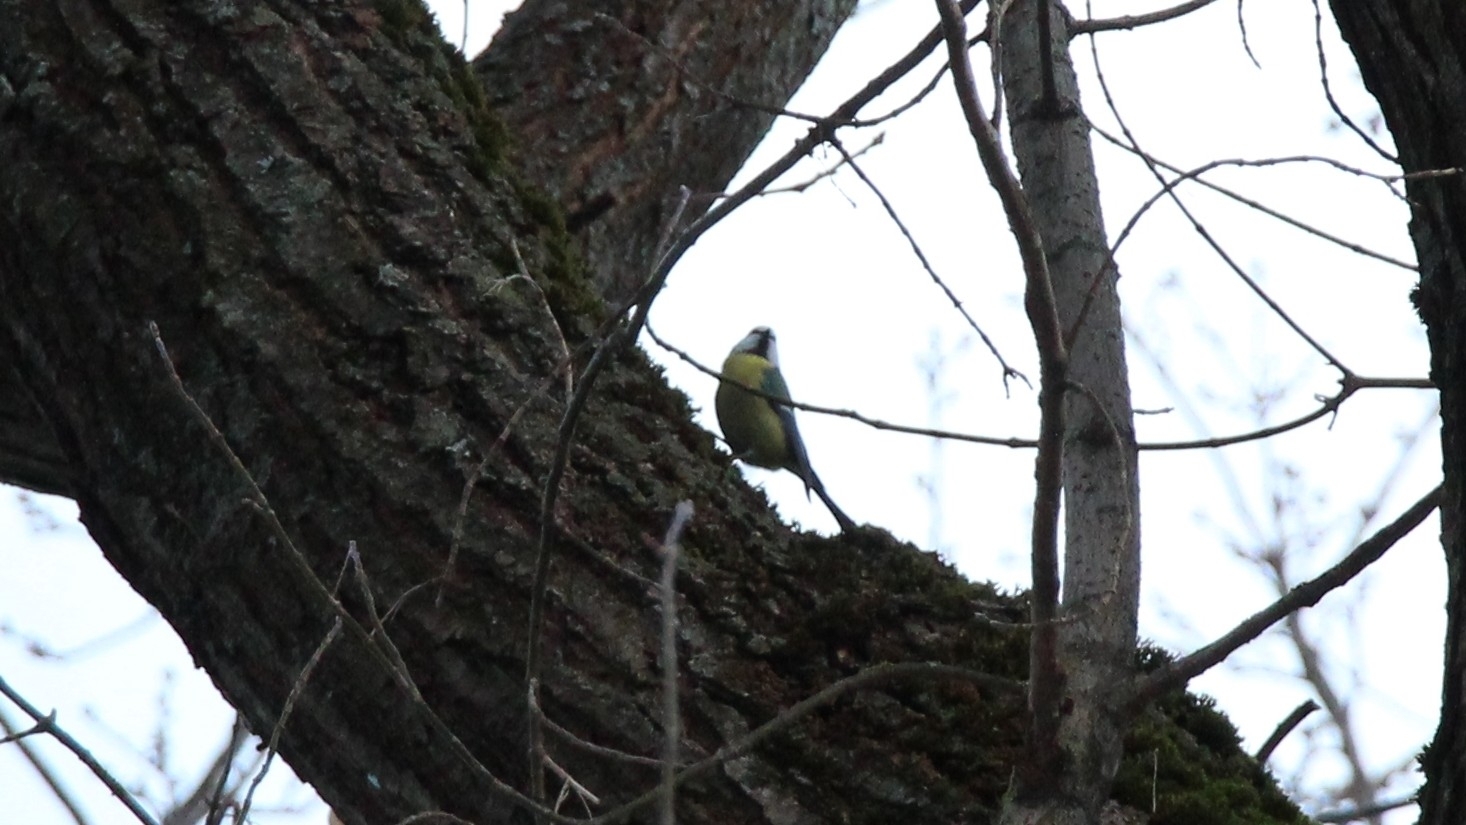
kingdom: Animalia
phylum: Chordata
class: Aves
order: Passeriformes
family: Paridae
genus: Cyanistes
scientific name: Cyanistes caeruleus
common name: Eurasian blue tit
